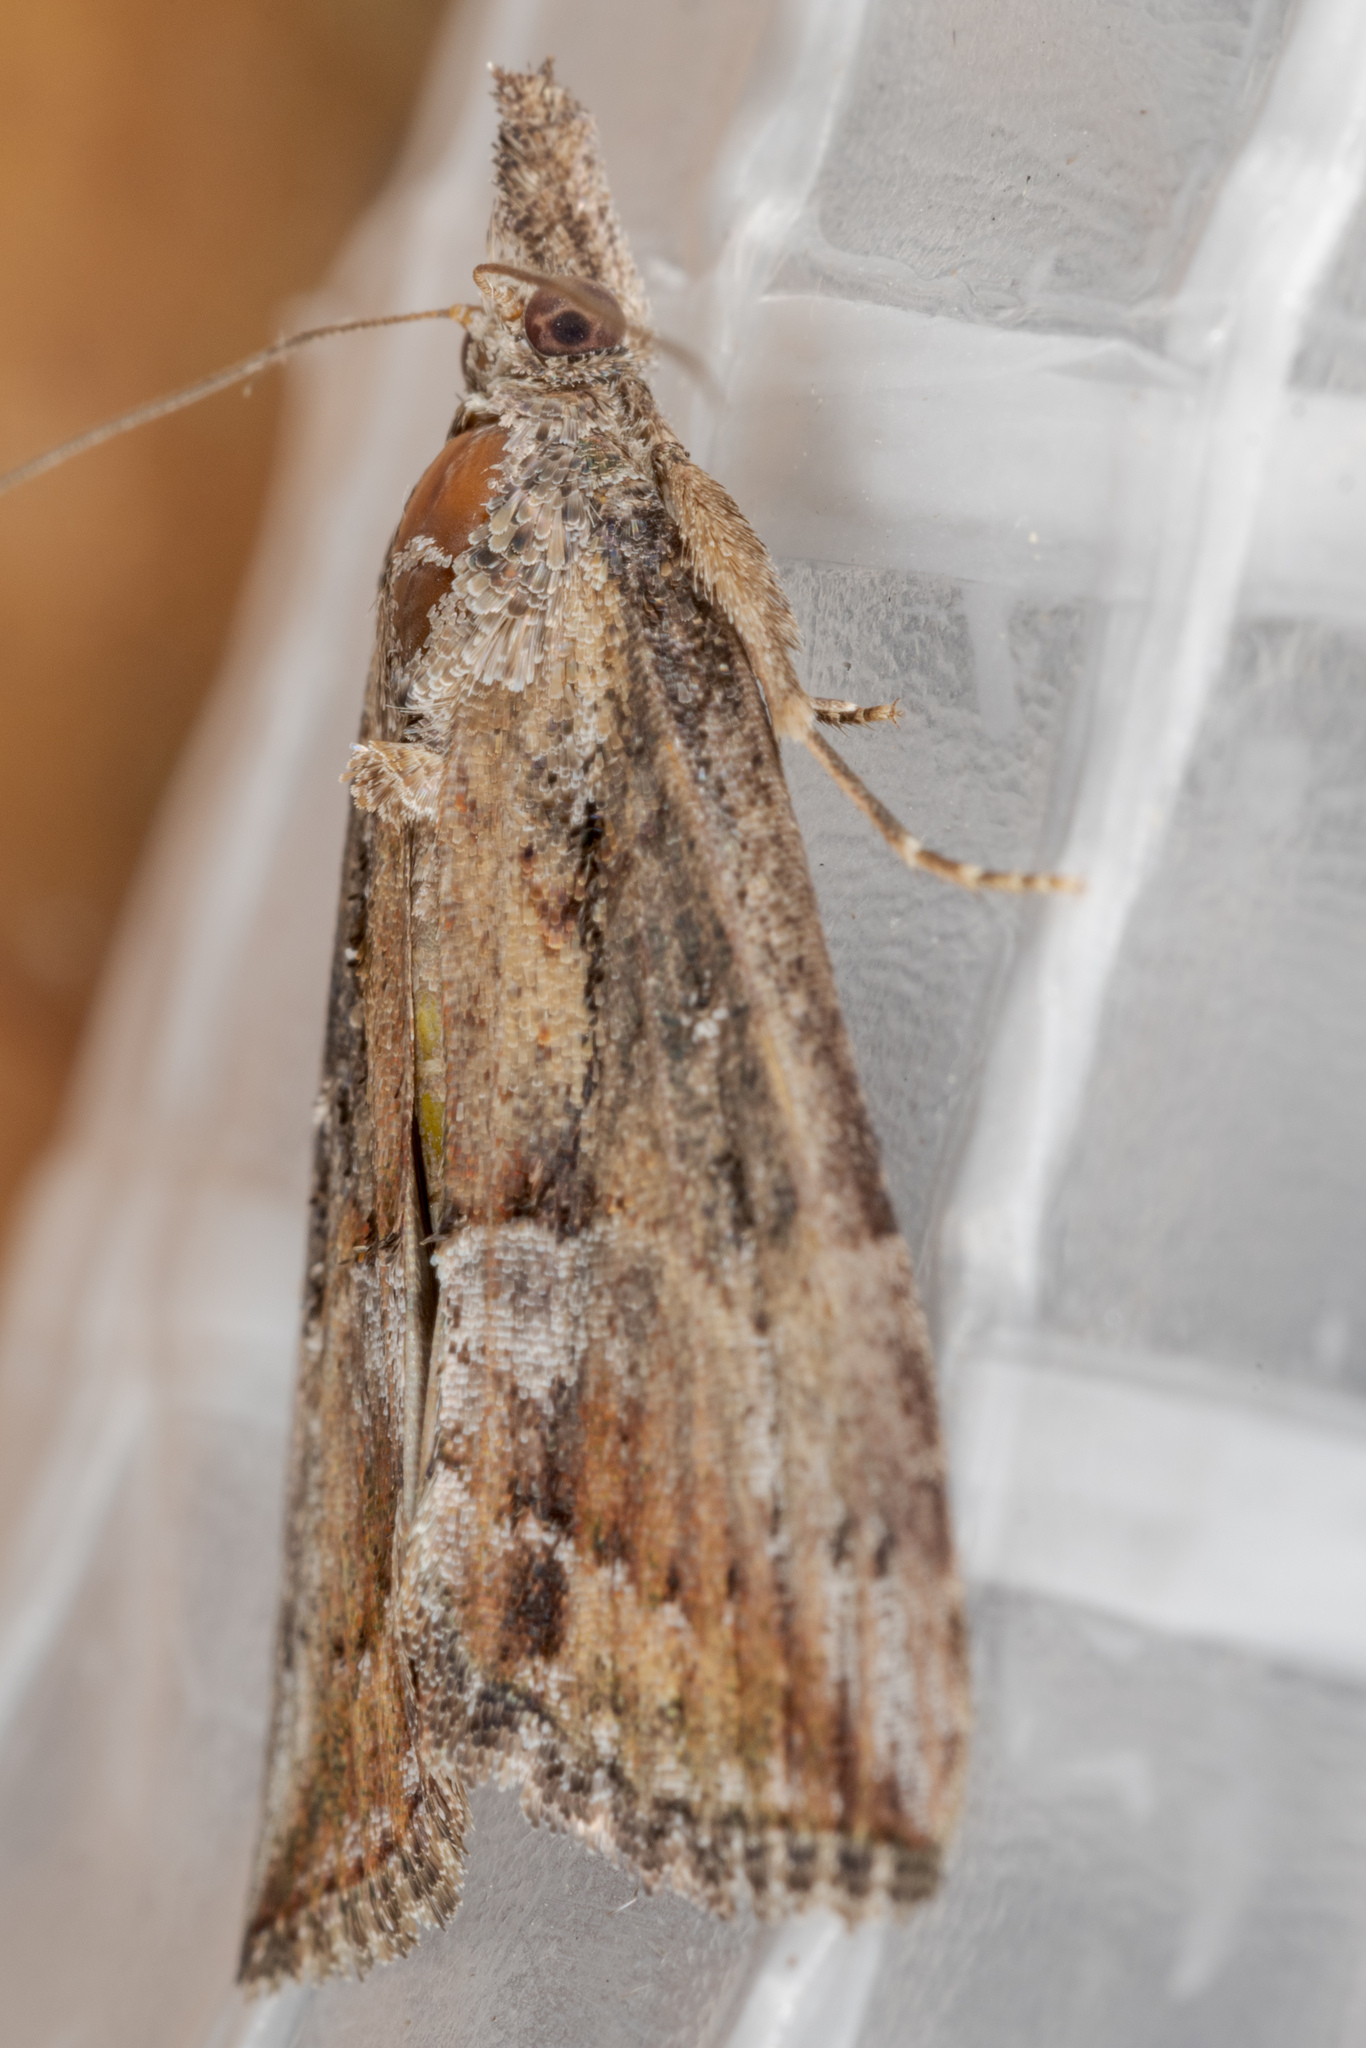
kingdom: Animalia
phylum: Arthropoda
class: Insecta
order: Lepidoptera
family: Erebidae
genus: Hypena
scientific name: Hypena scabra
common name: Green cloverworm
